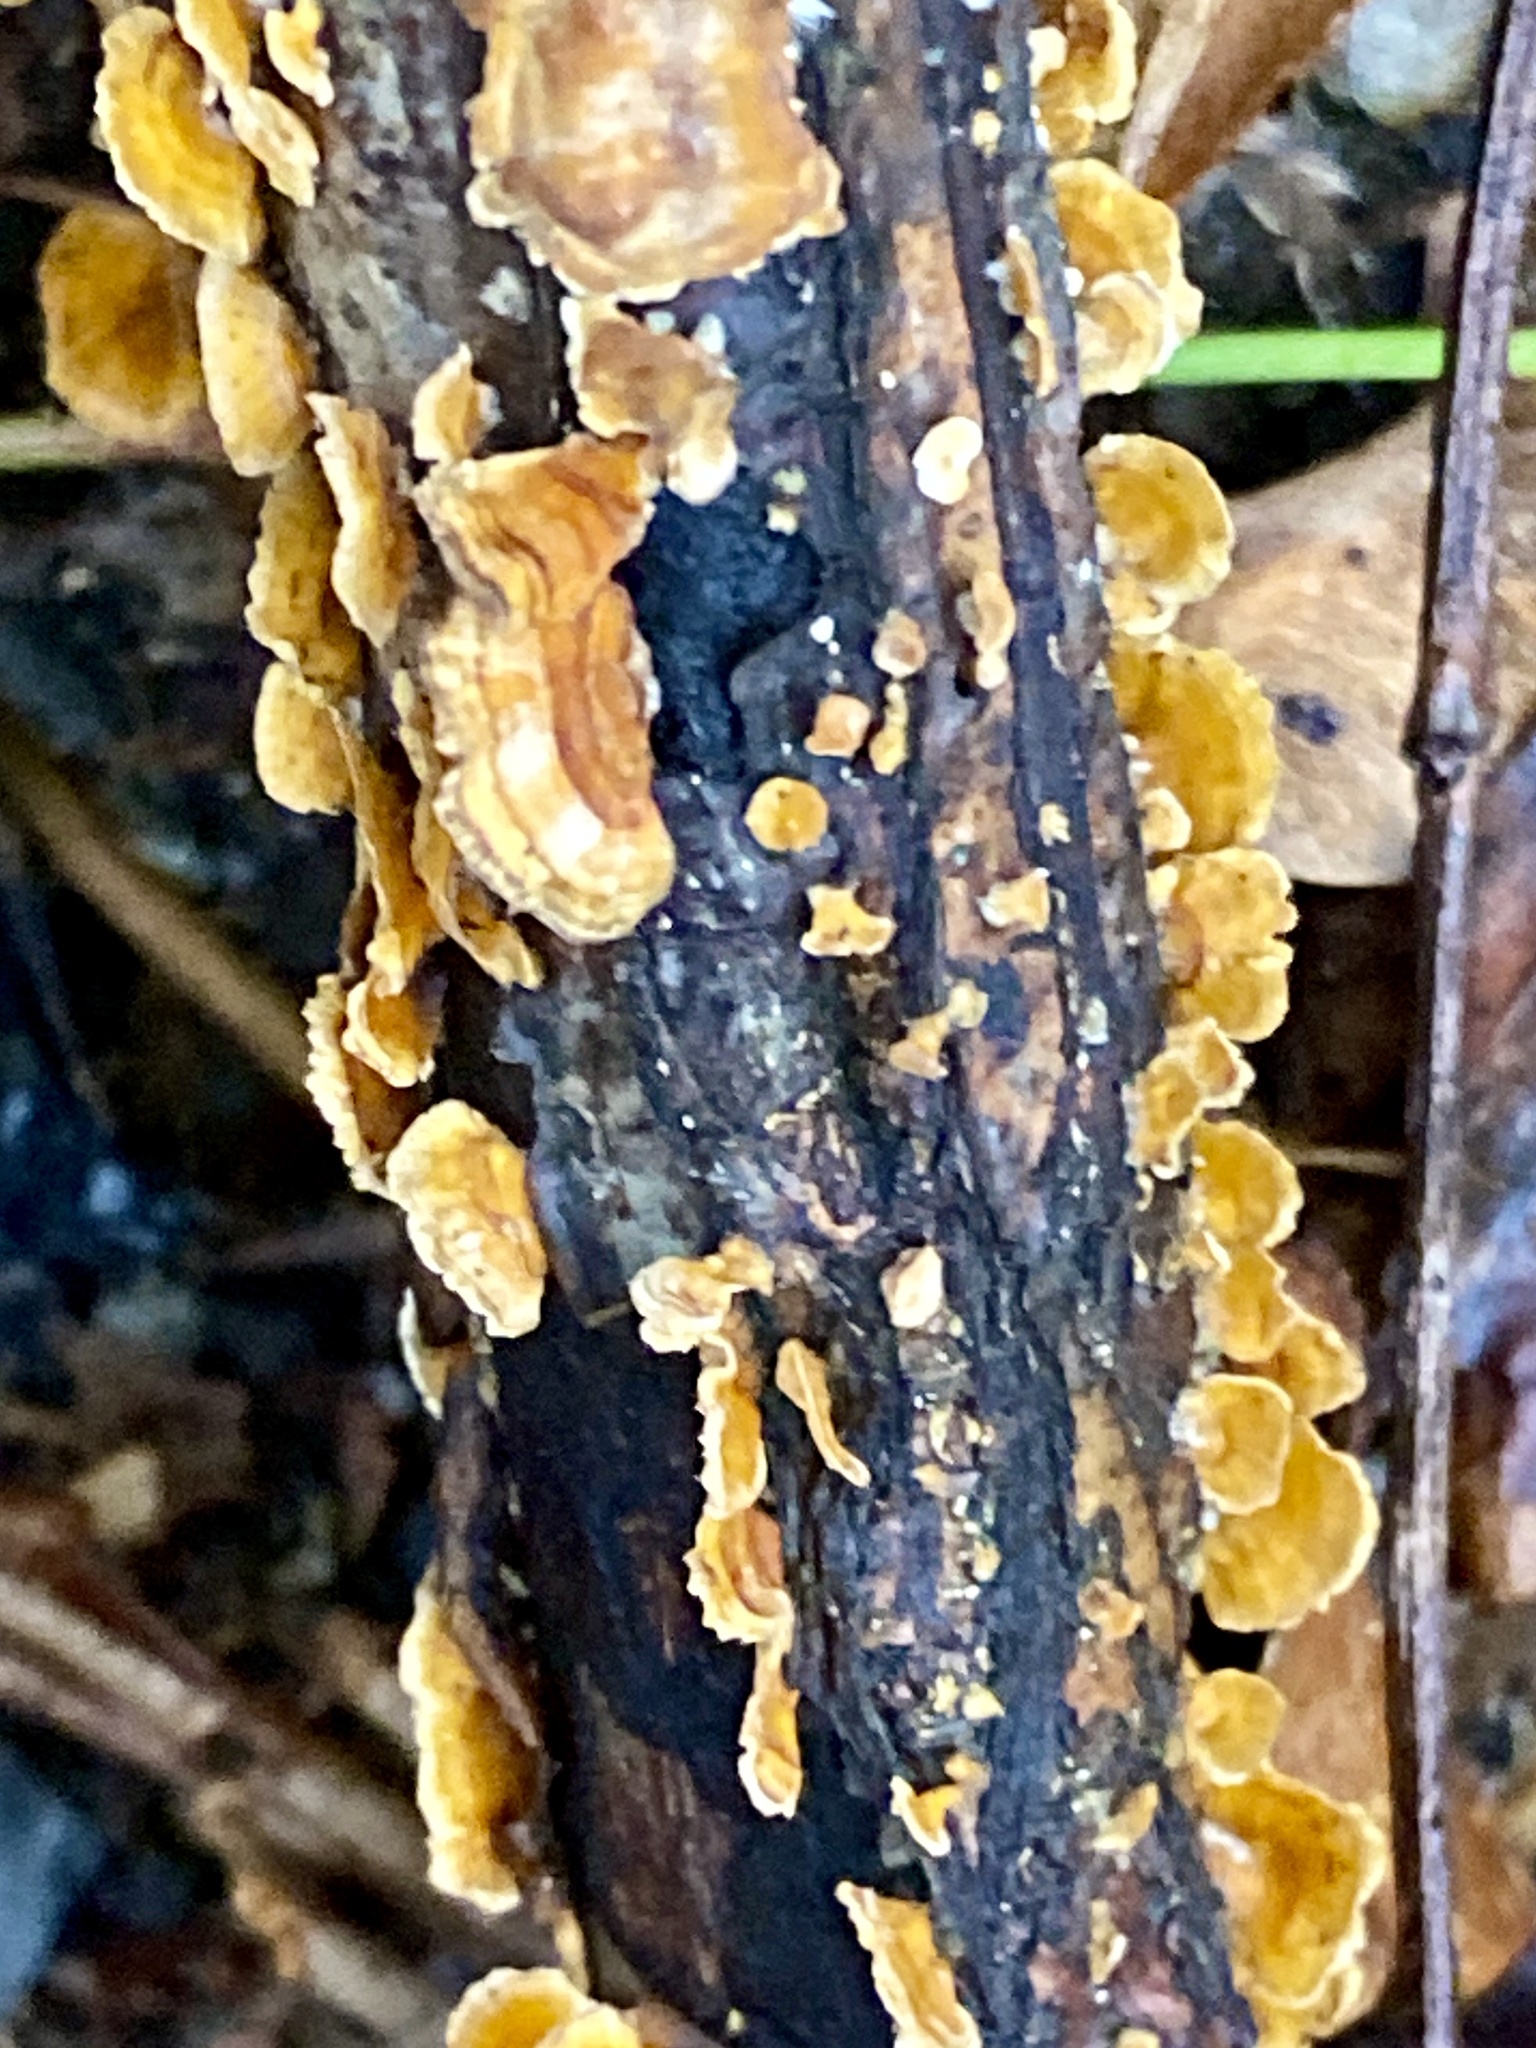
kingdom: Fungi
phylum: Basidiomycota
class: Agaricomycetes
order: Russulales
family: Stereaceae
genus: Stereum
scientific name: Stereum complicatum
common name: Crowded parchment
